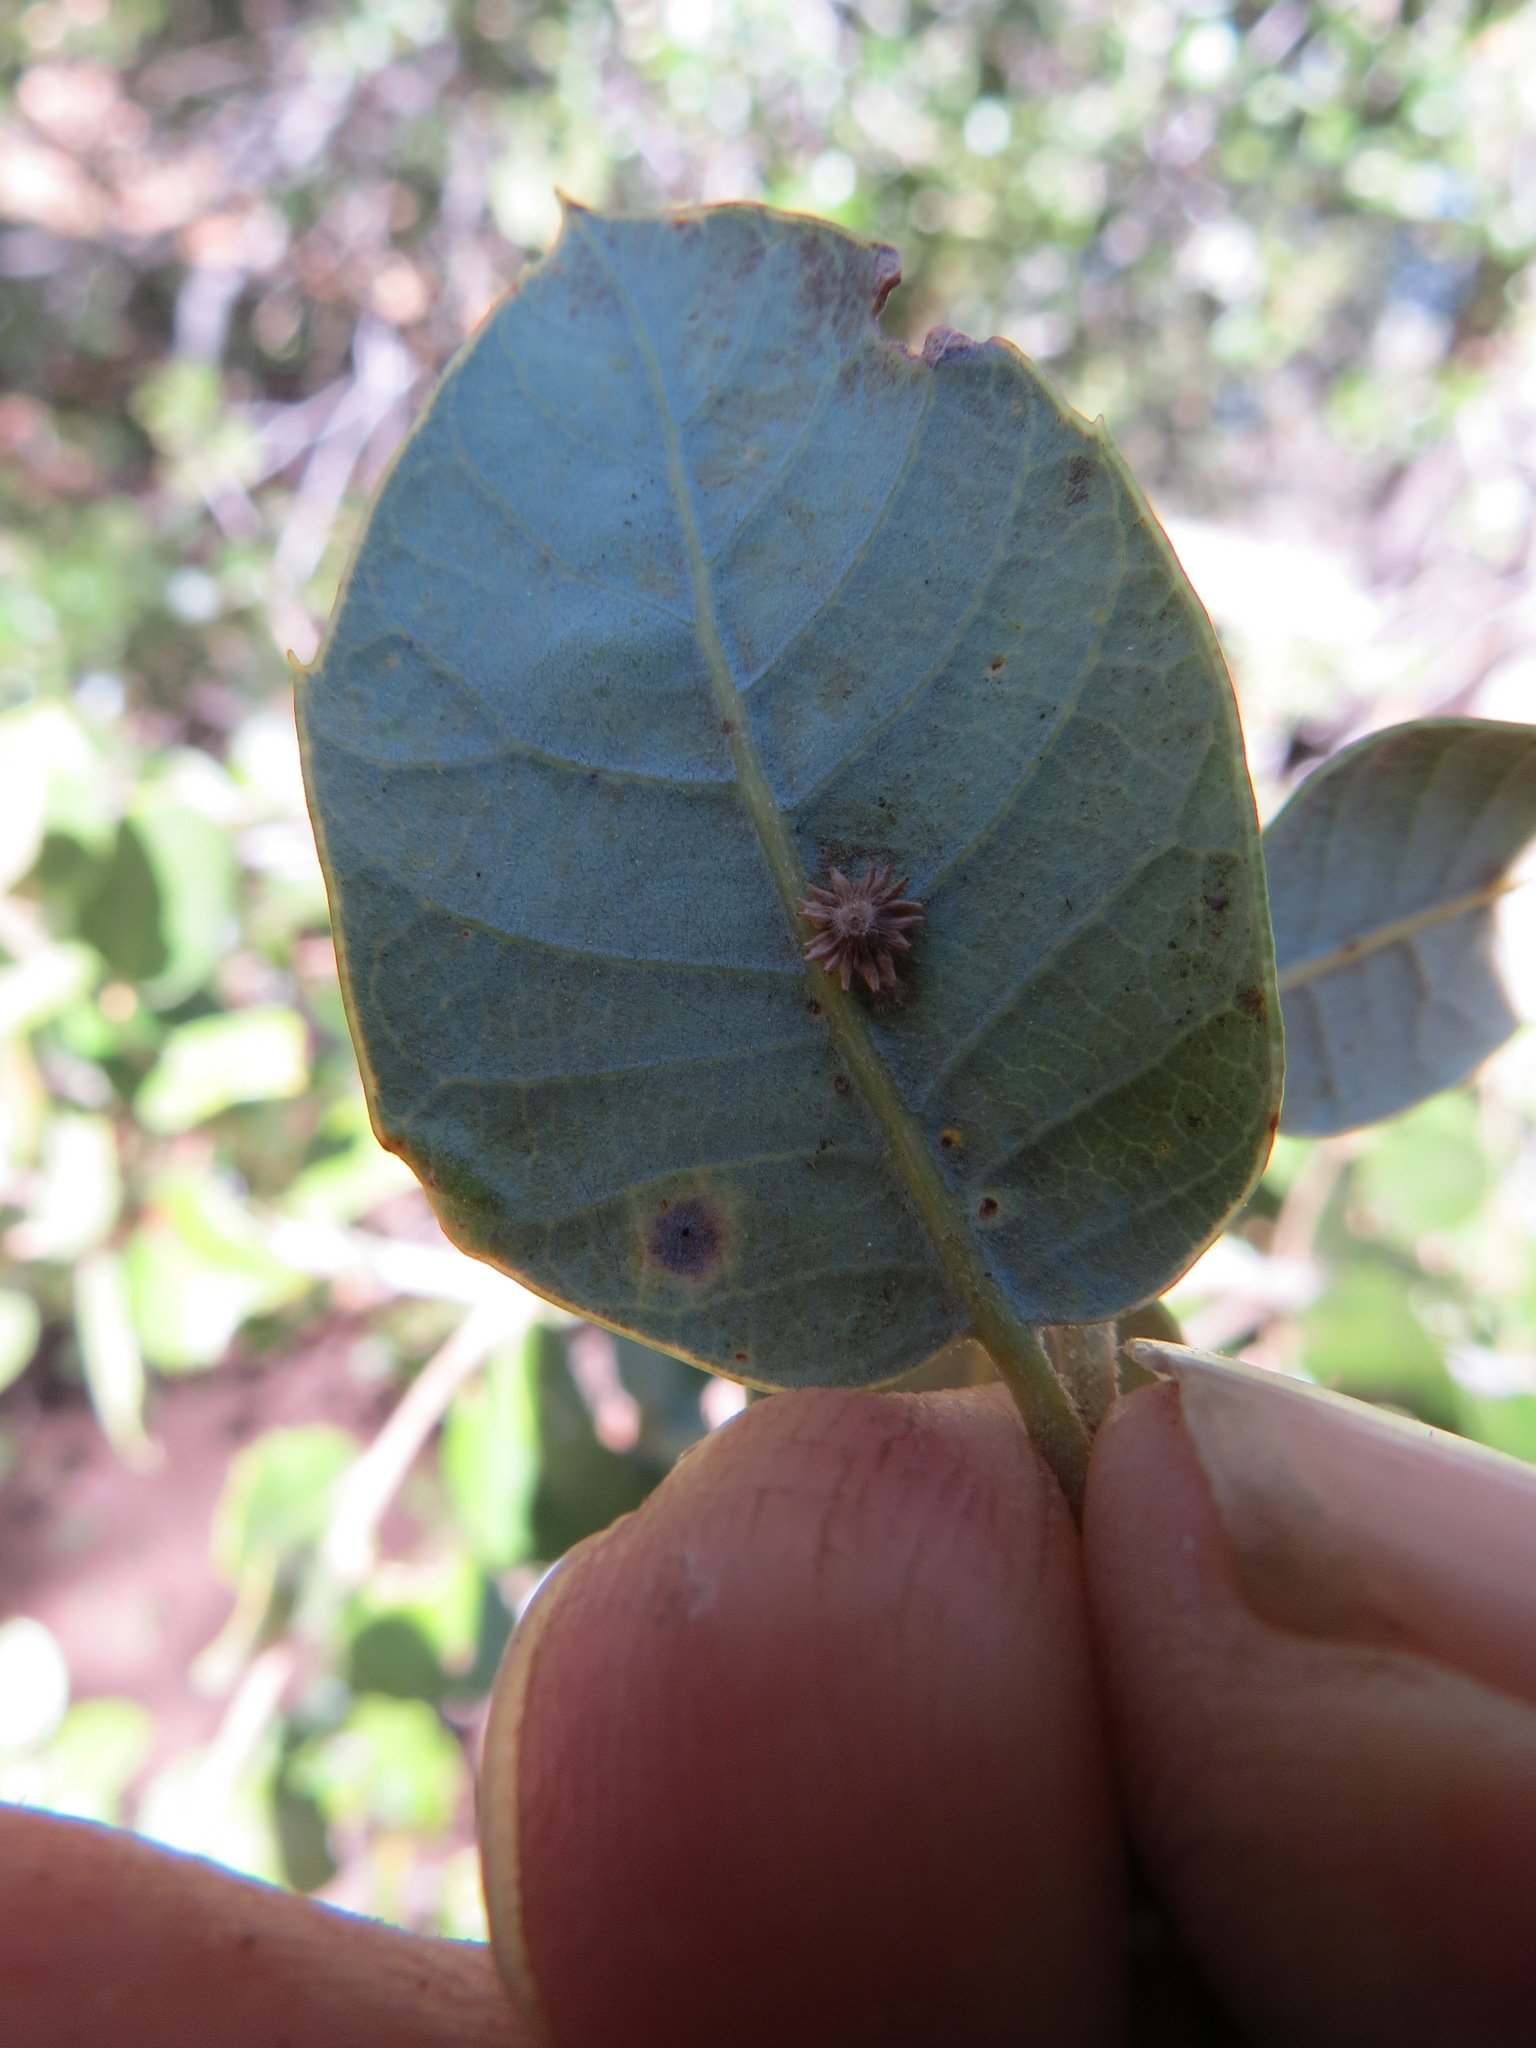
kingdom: Animalia
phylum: Arthropoda
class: Insecta
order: Hymenoptera
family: Cynipidae
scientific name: Cynipidae
